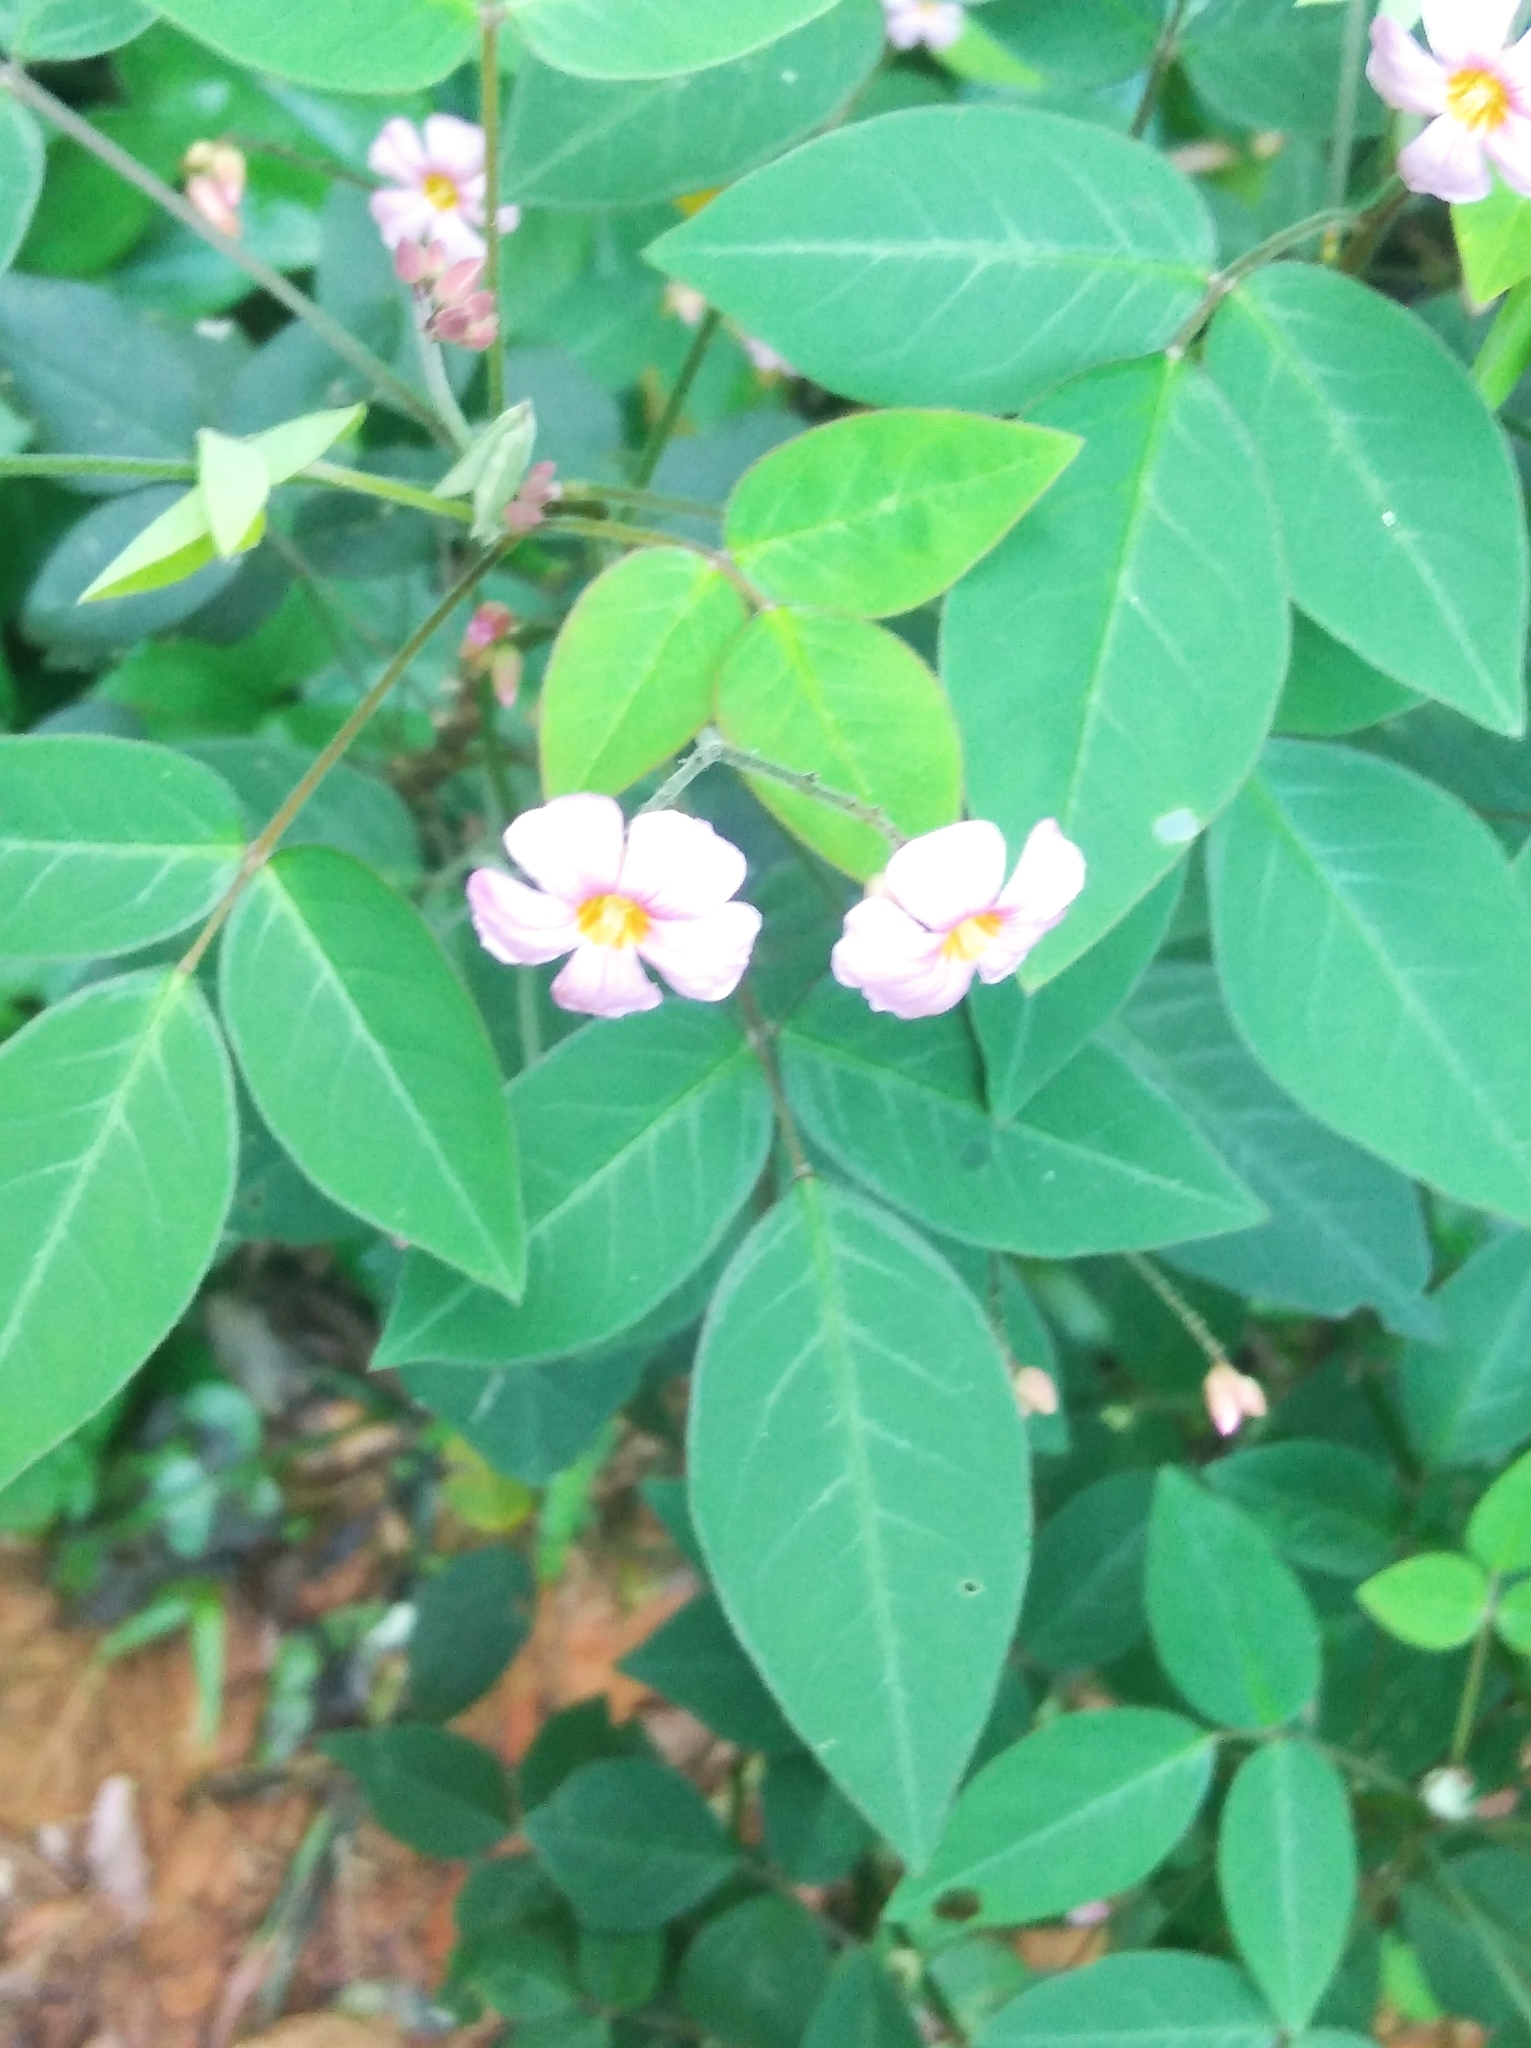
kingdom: Plantae
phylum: Tracheophyta
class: Magnoliopsida
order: Oxalidales
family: Oxalidaceae
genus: Oxalis
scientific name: Oxalis barrelieri
